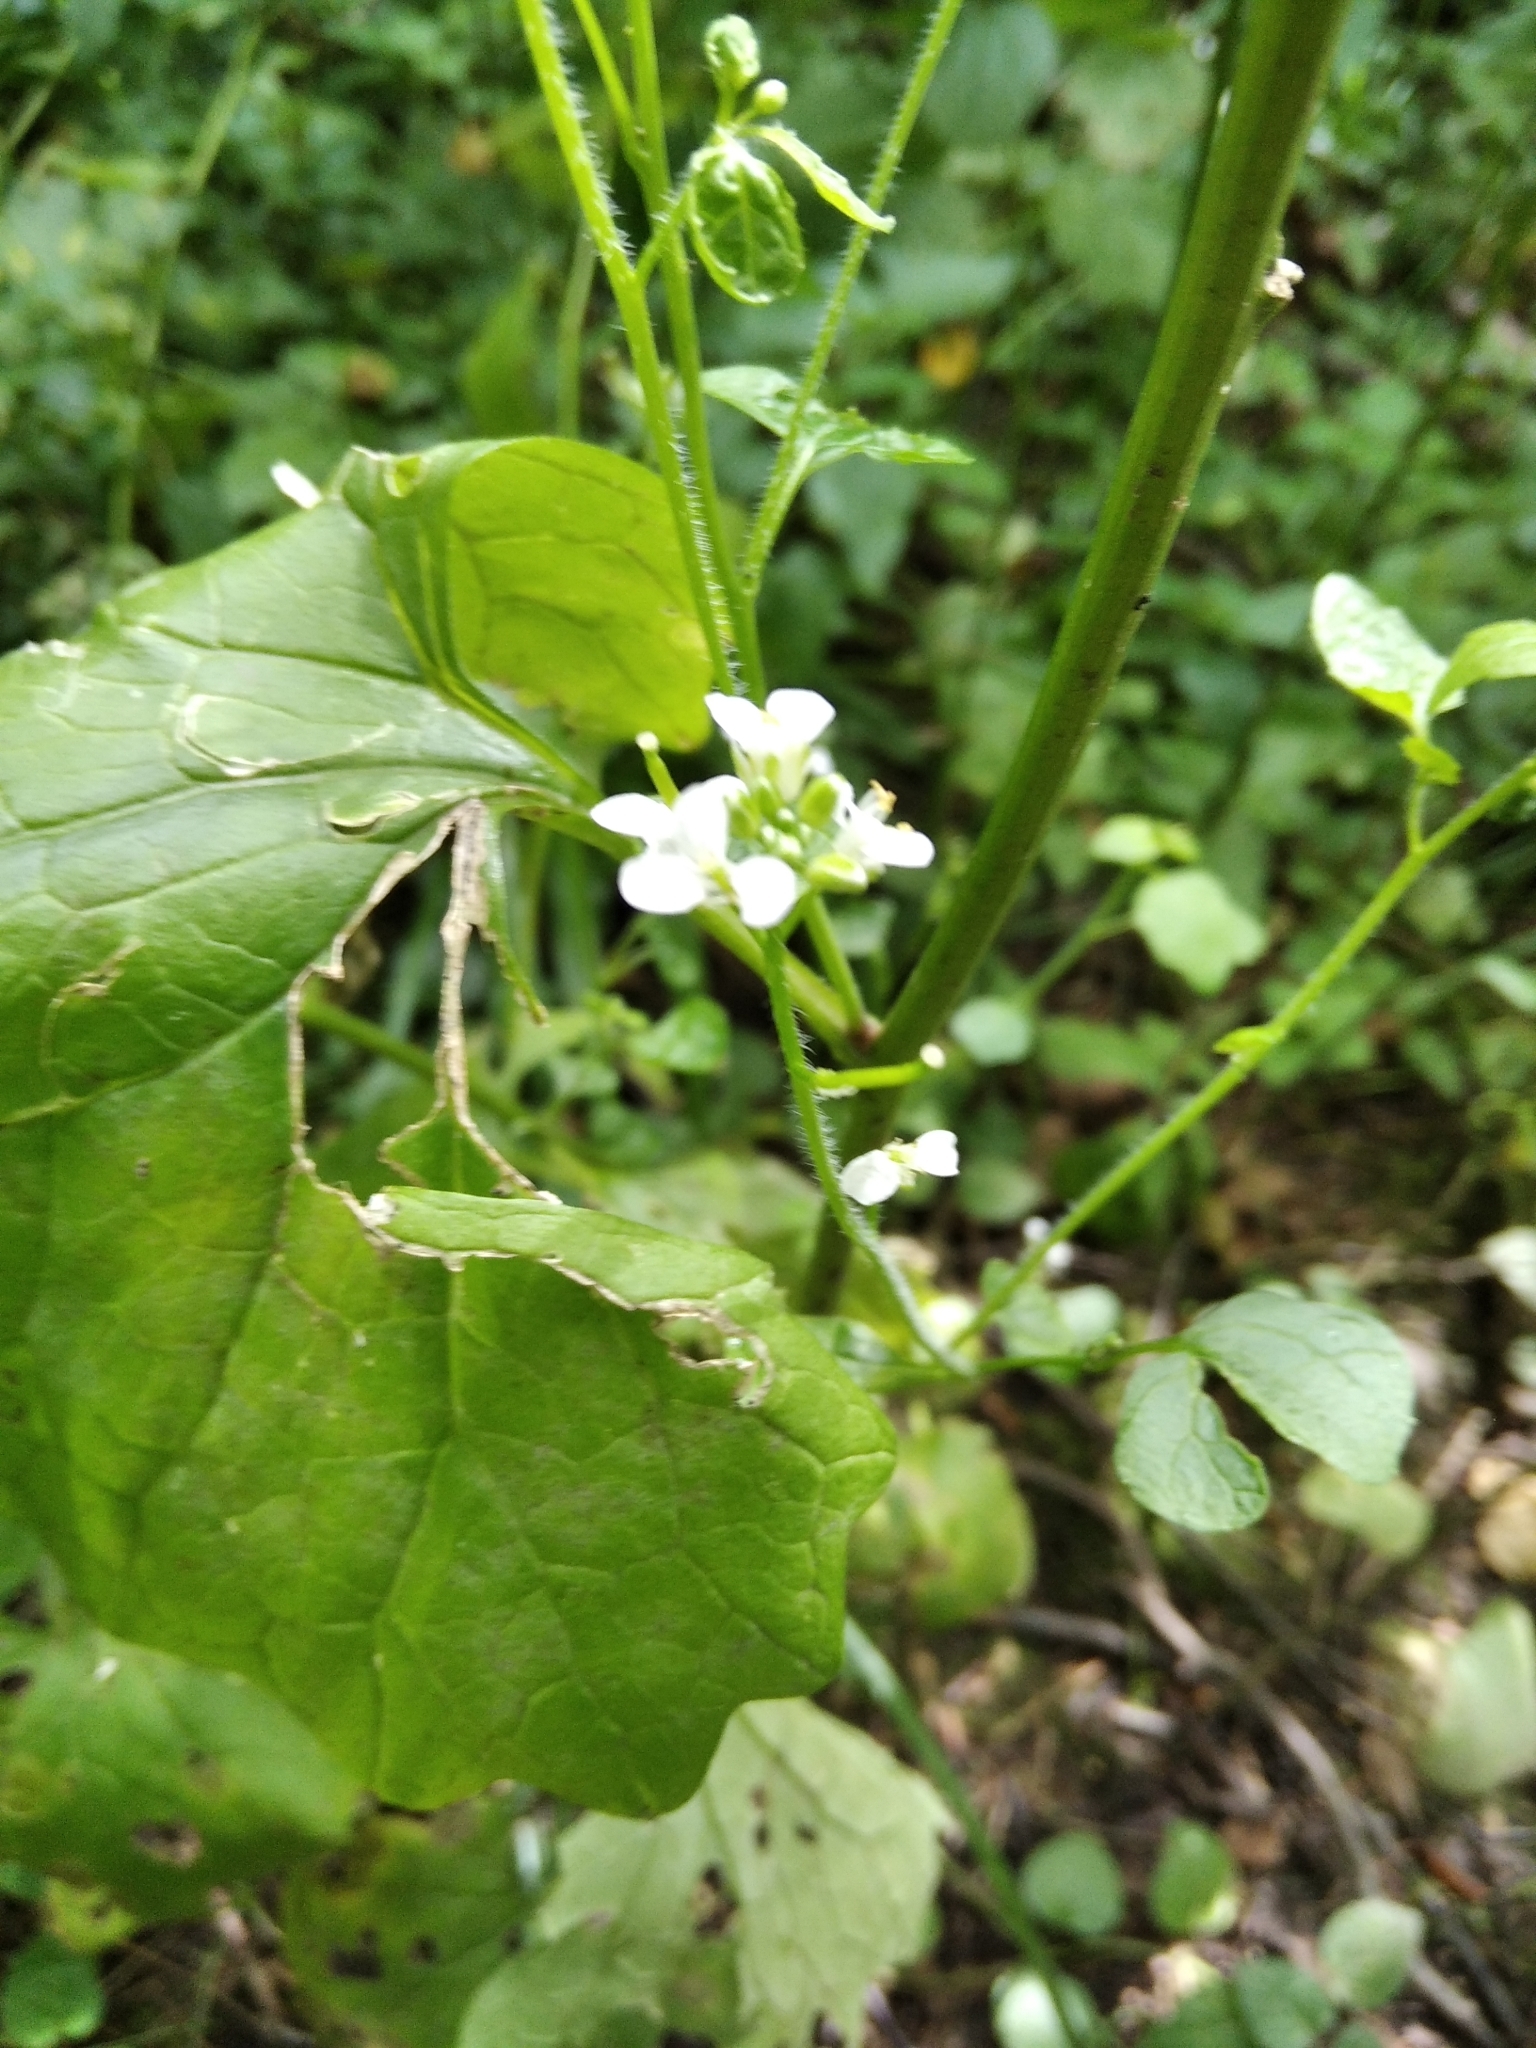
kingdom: Plantae
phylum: Tracheophyta
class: Magnoliopsida
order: Brassicales
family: Brassicaceae
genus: Alliaria
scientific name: Alliaria petiolata
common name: Garlic mustard
